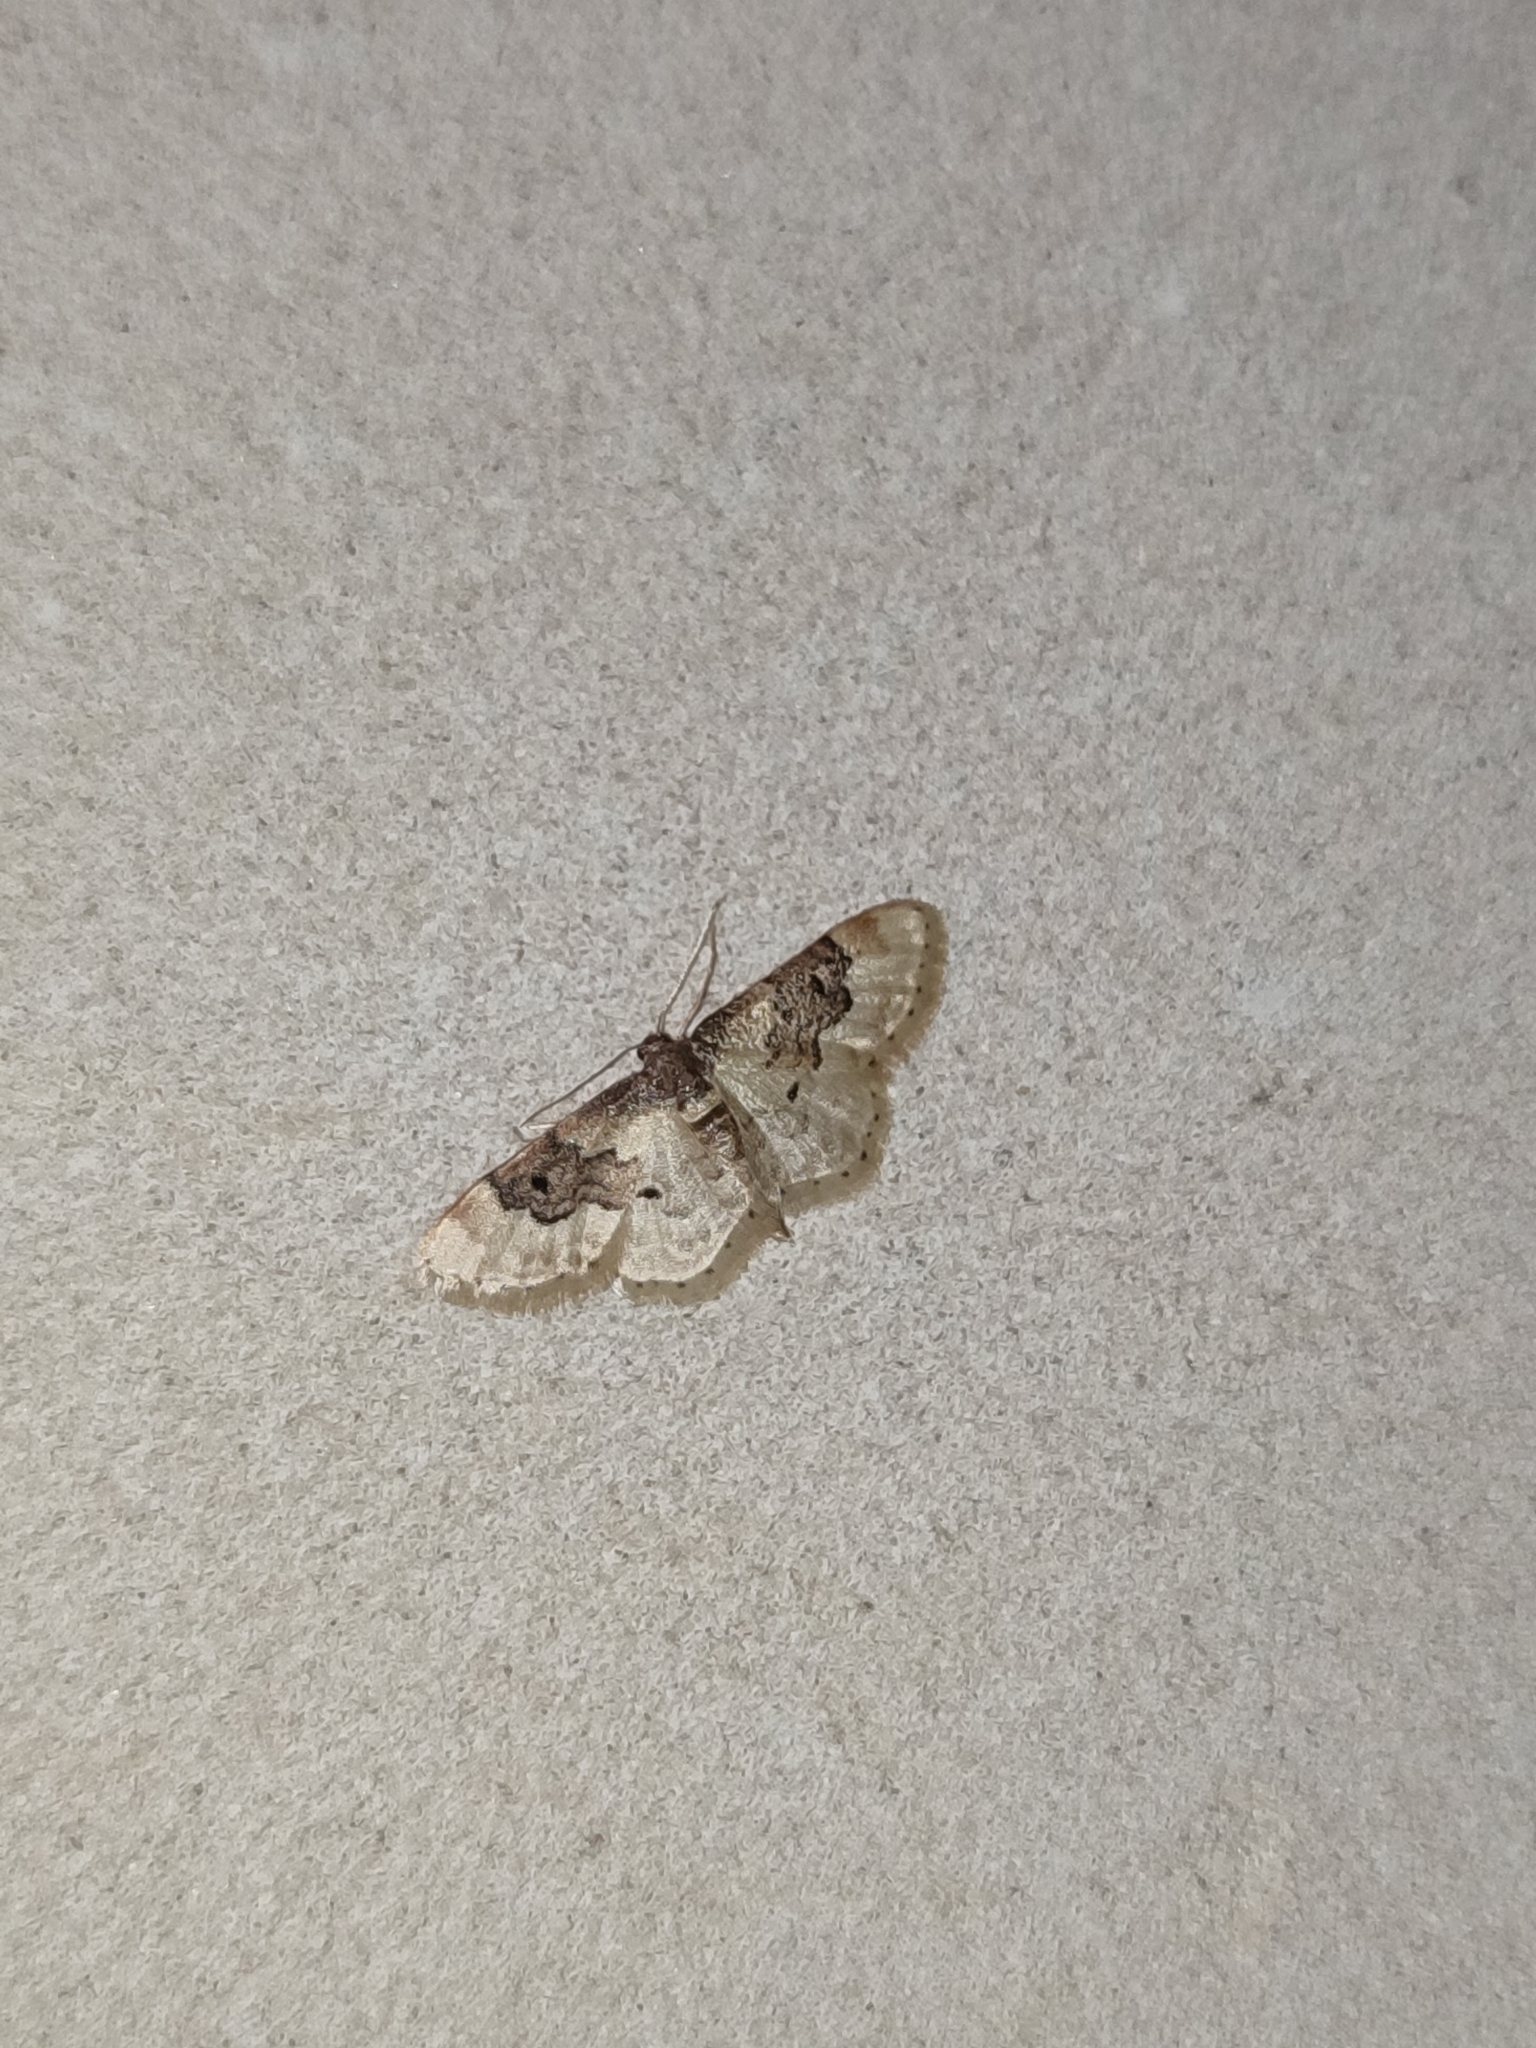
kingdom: Animalia
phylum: Arthropoda
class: Insecta
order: Lepidoptera
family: Geometridae
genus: Idaea
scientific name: Idaea rusticata
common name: Least carpet
